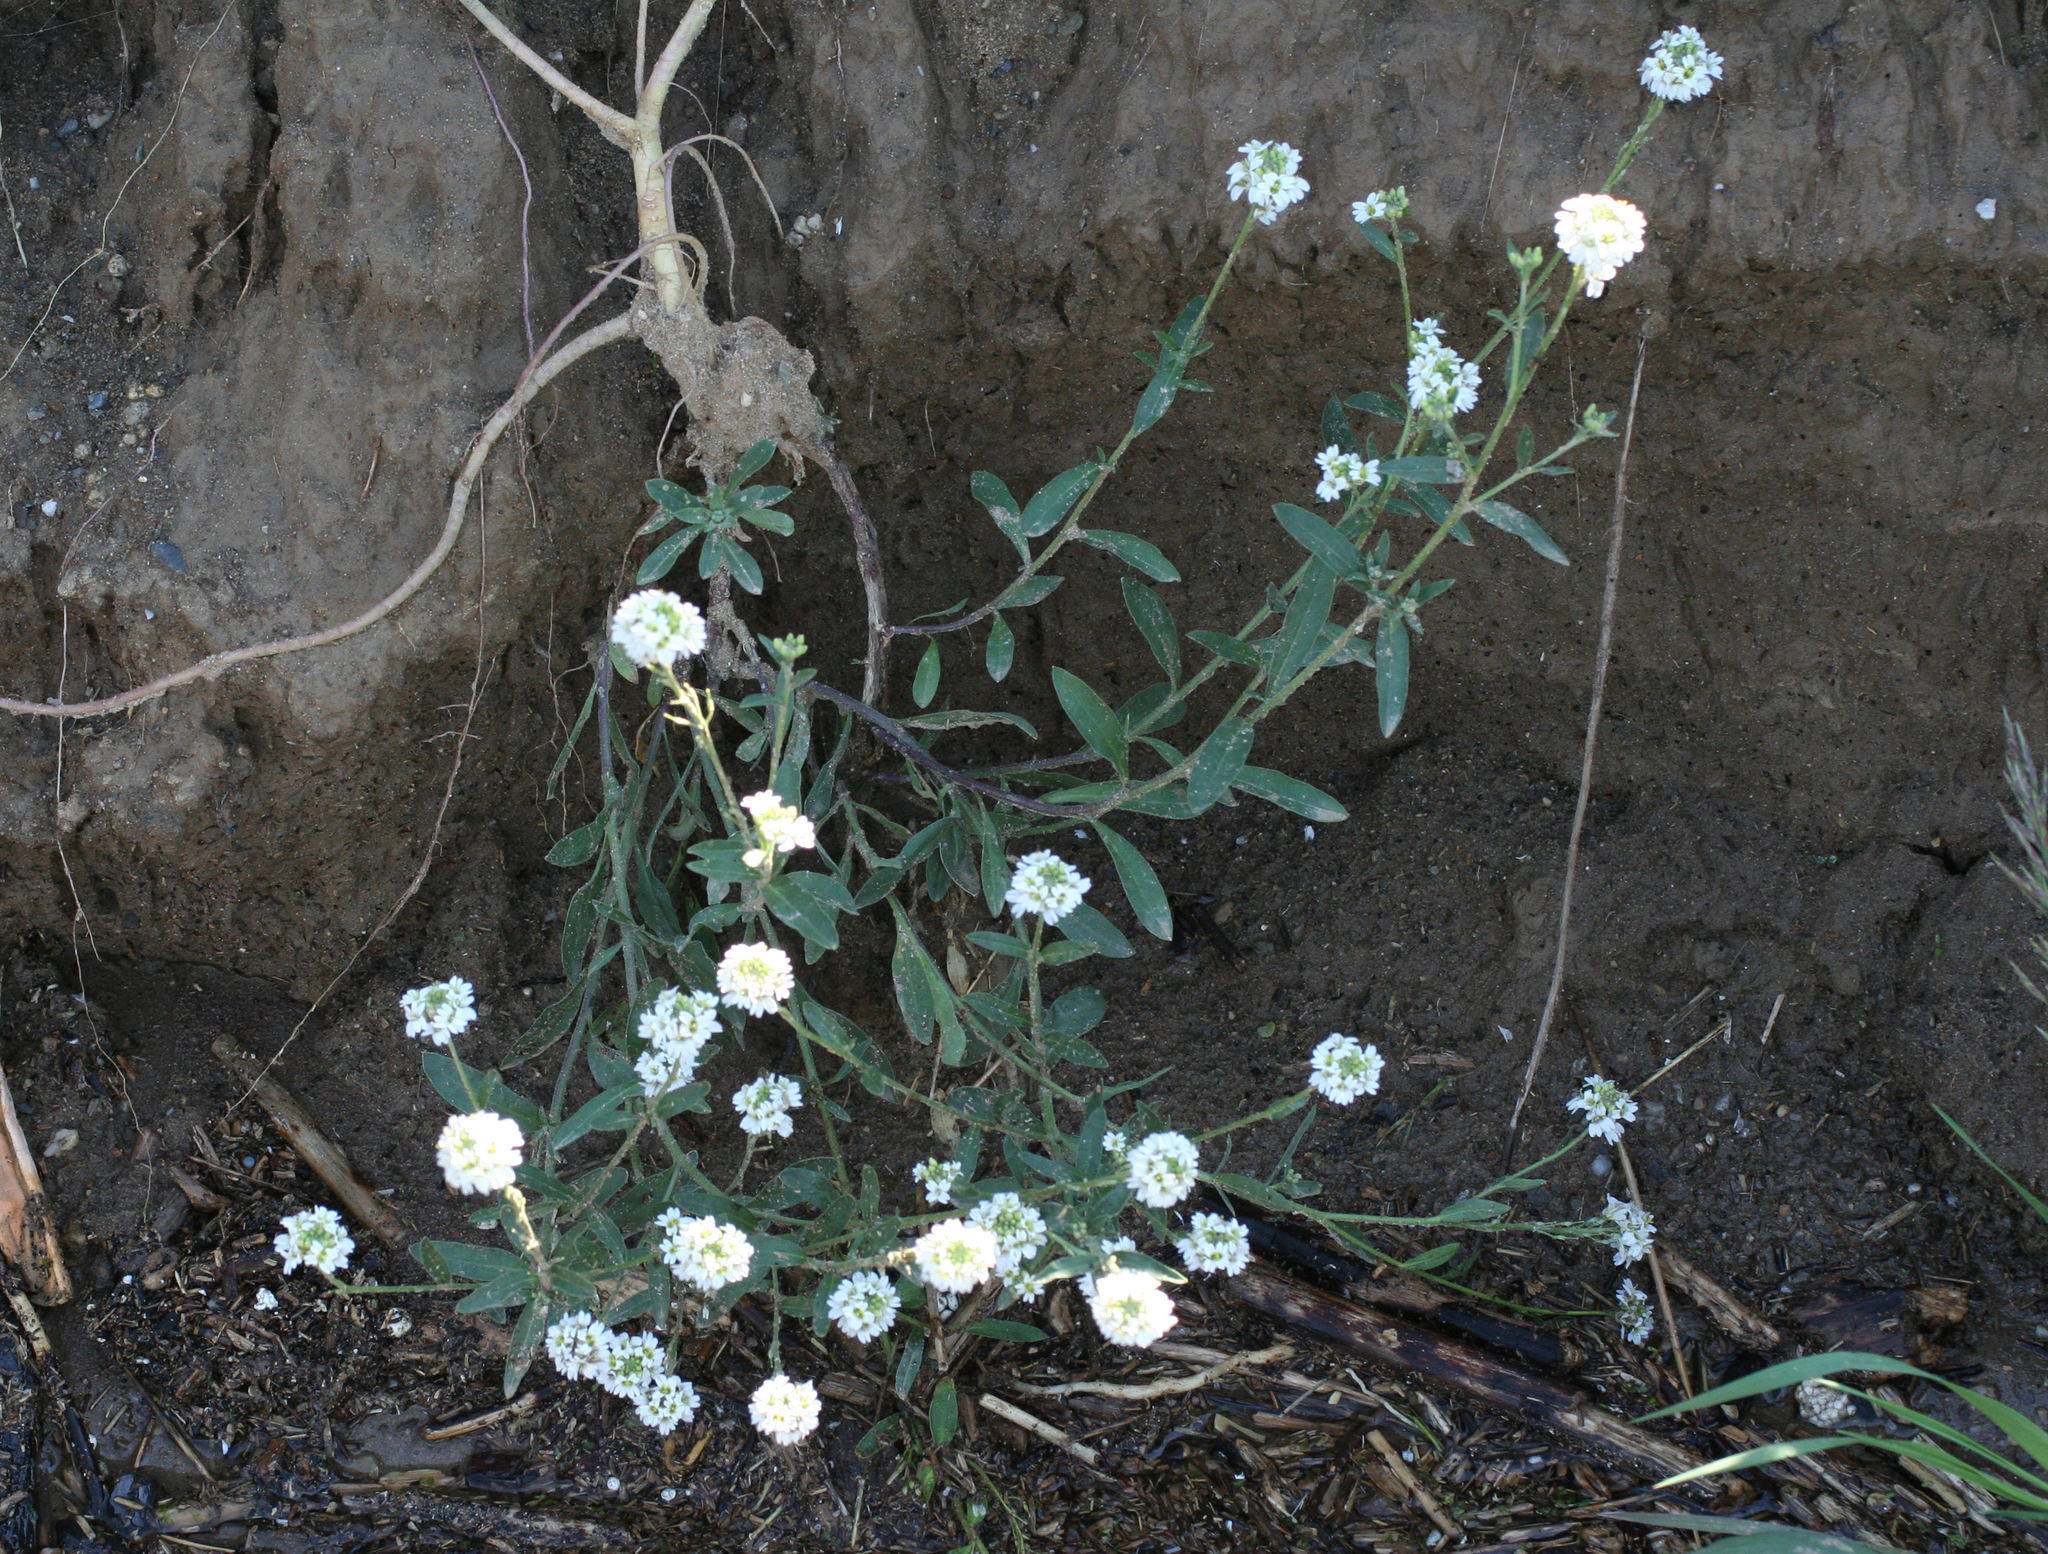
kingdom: Plantae
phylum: Tracheophyta
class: Magnoliopsida
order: Brassicales
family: Brassicaceae
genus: Berteroa
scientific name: Berteroa incana
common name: Hoary alison
